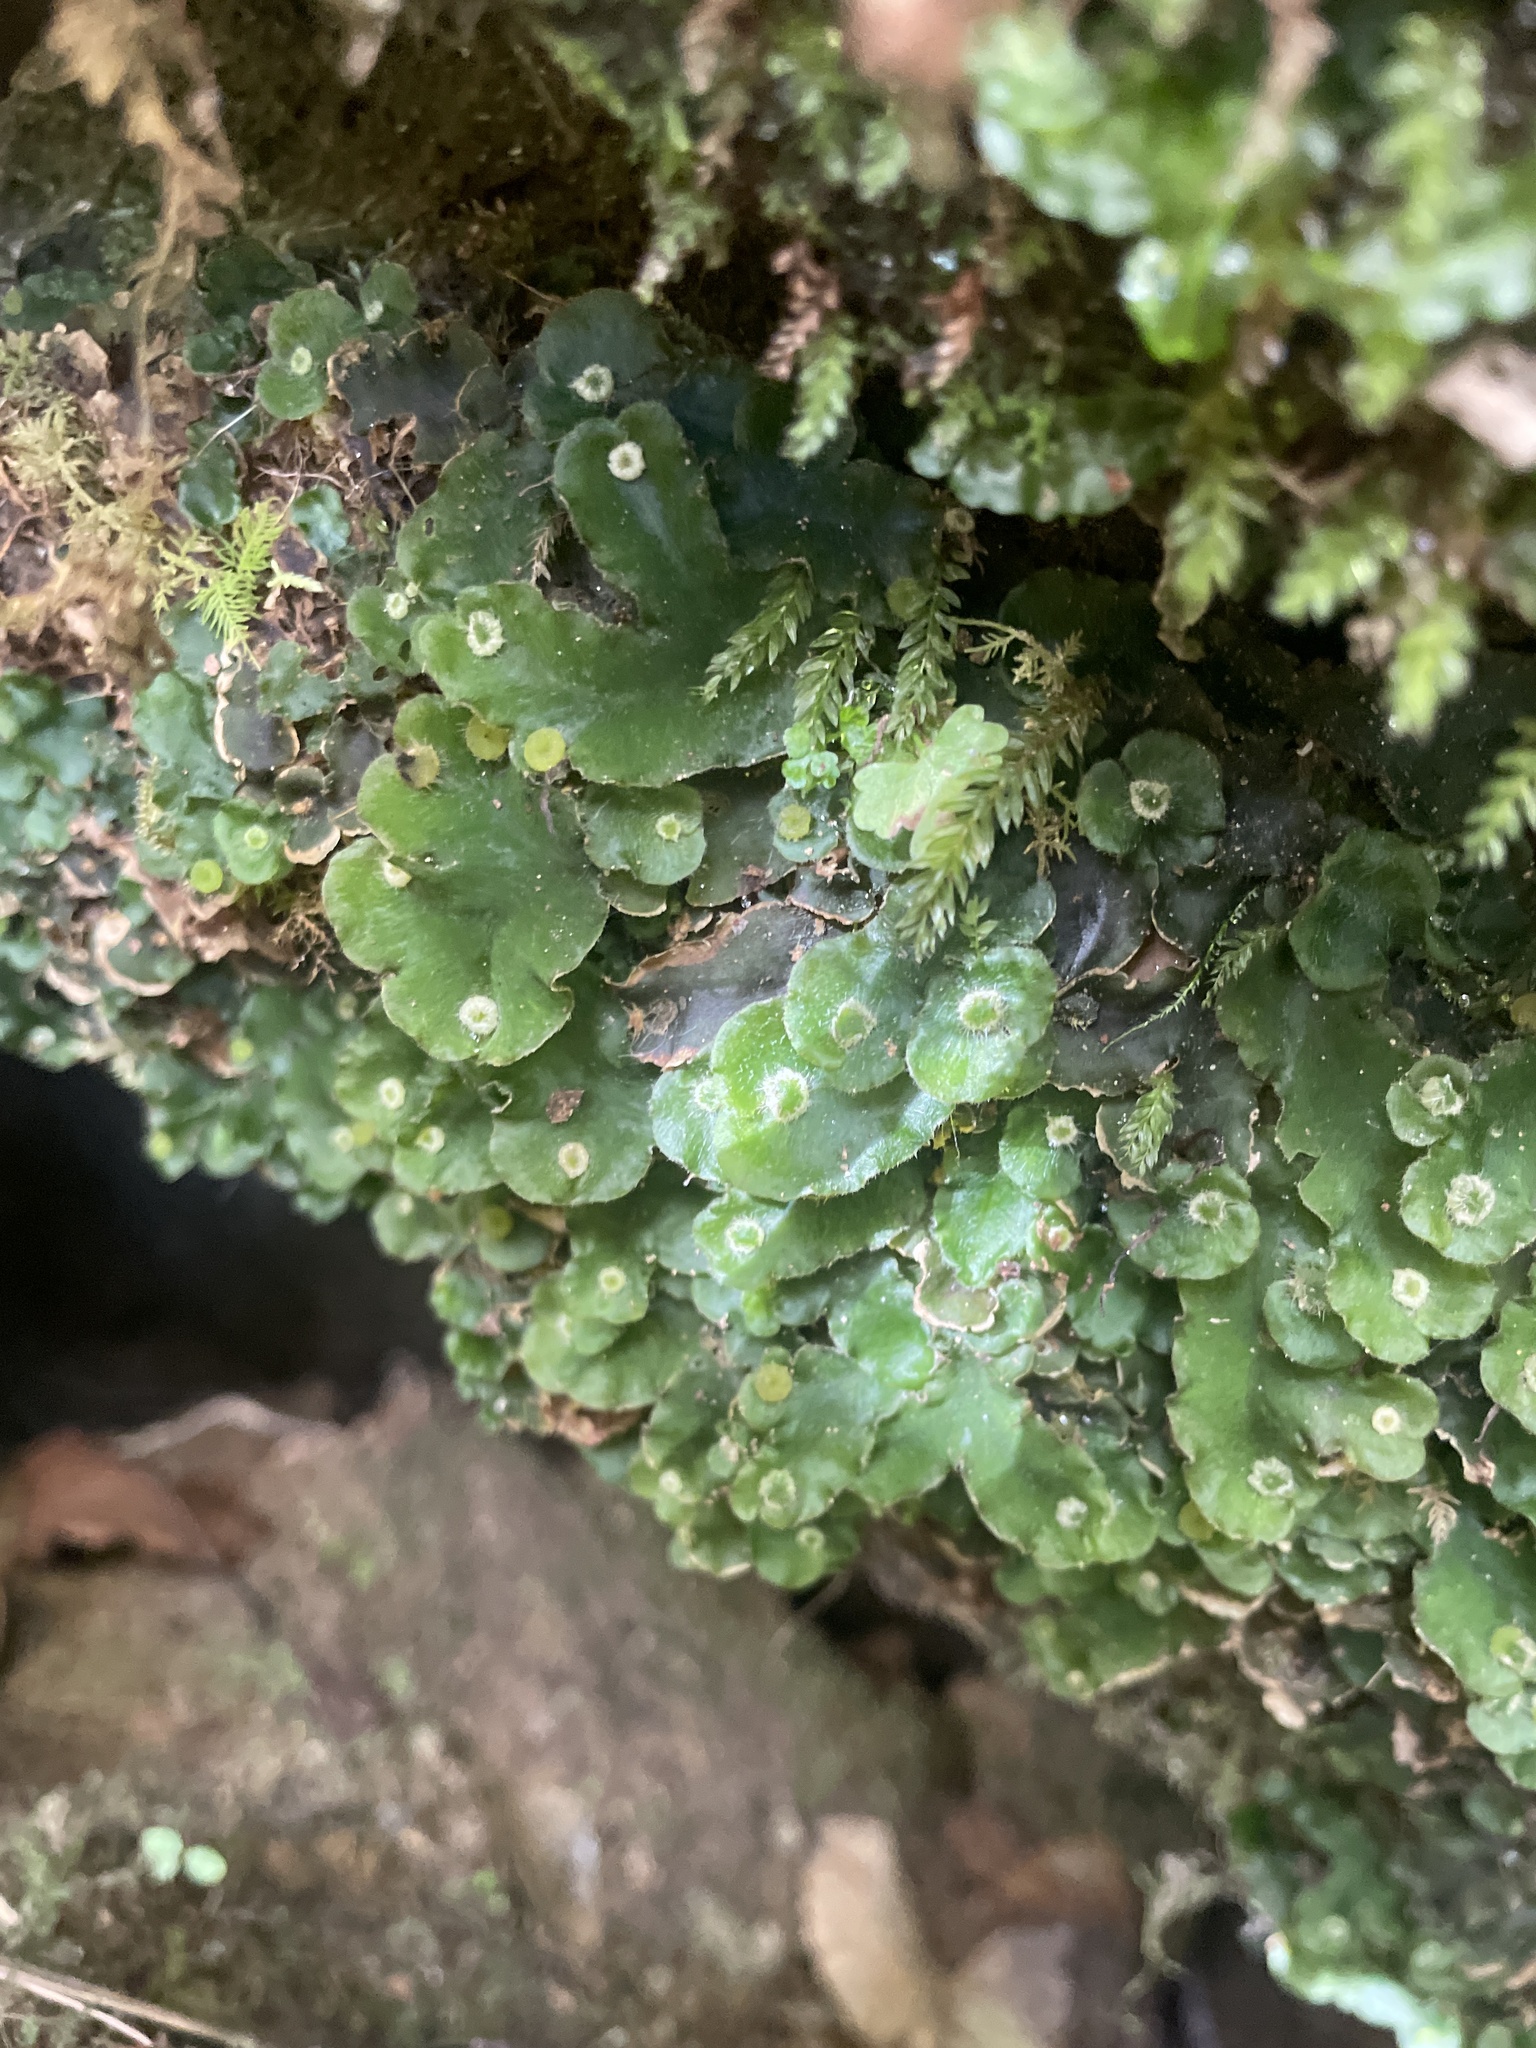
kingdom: Plantae
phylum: Marchantiophyta
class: Marchantiopsida
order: Marchantiales
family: Dumortieraceae
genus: Dumortiera
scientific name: Dumortiera hirsuta
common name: Dumortier's liverwort
